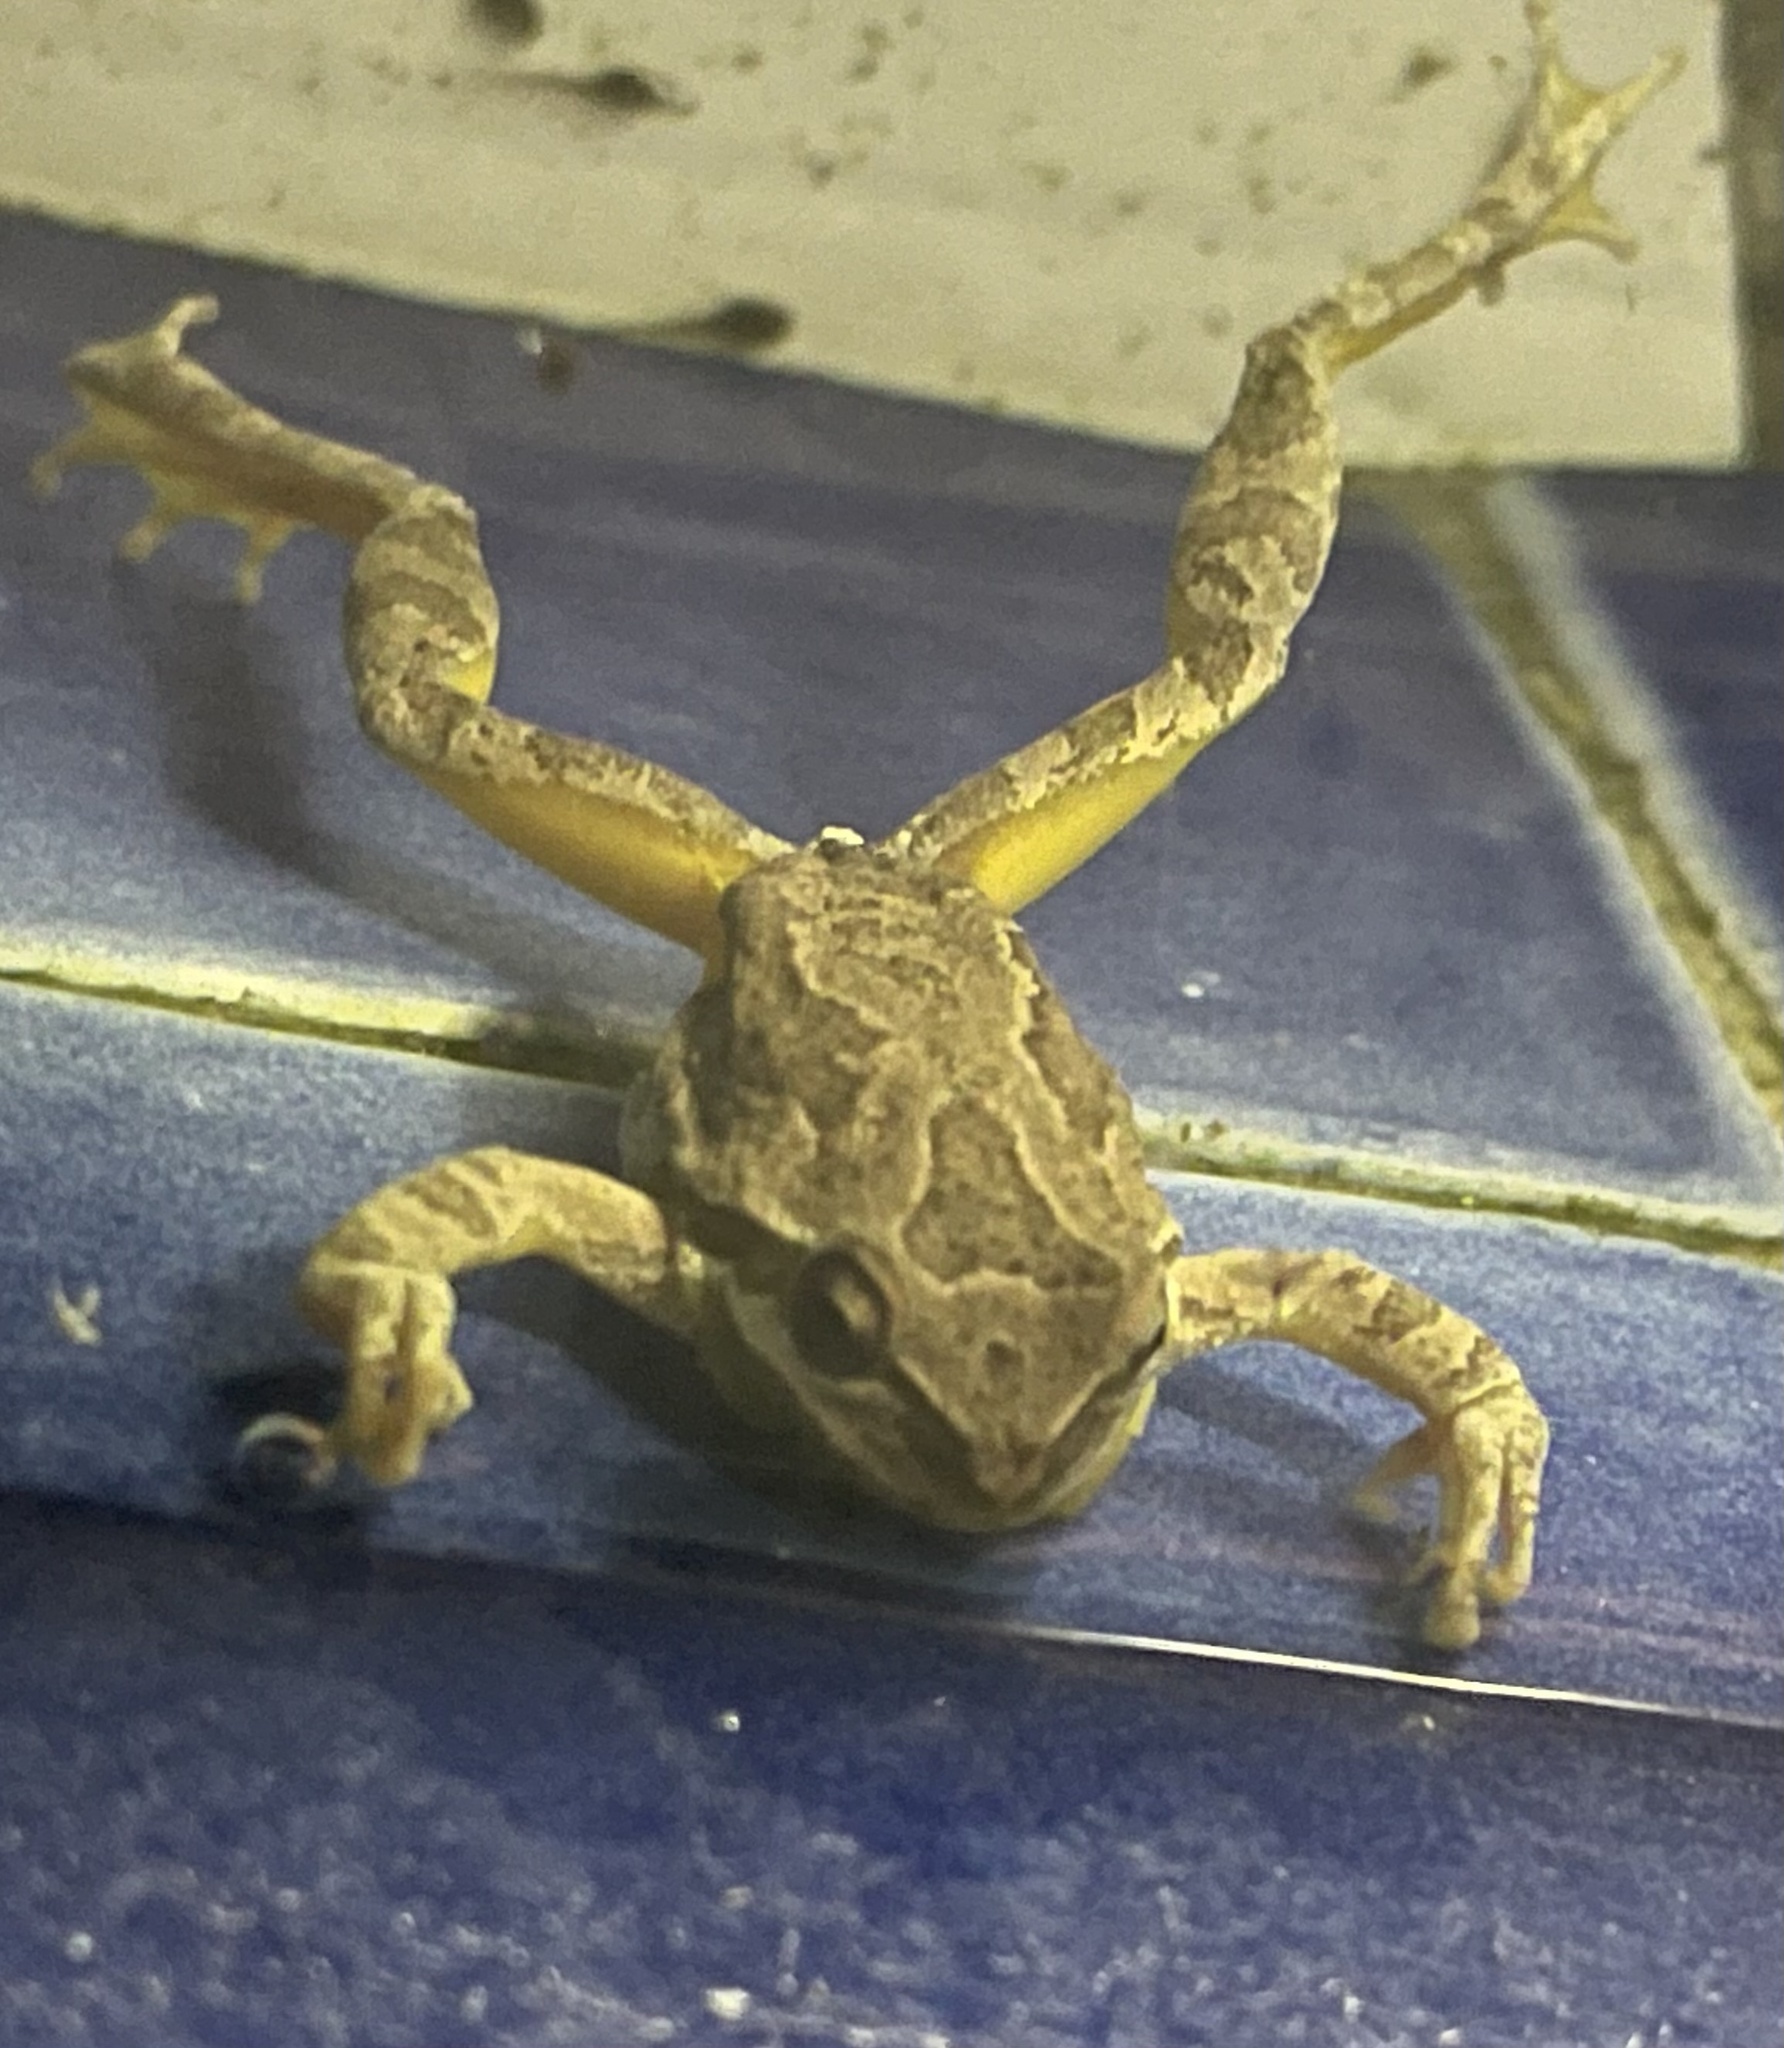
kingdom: Animalia
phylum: Chordata
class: Amphibia
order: Anura
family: Hylidae
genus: Pseudacris
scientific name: Pseudacris regilla
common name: Pacific chorus frog
